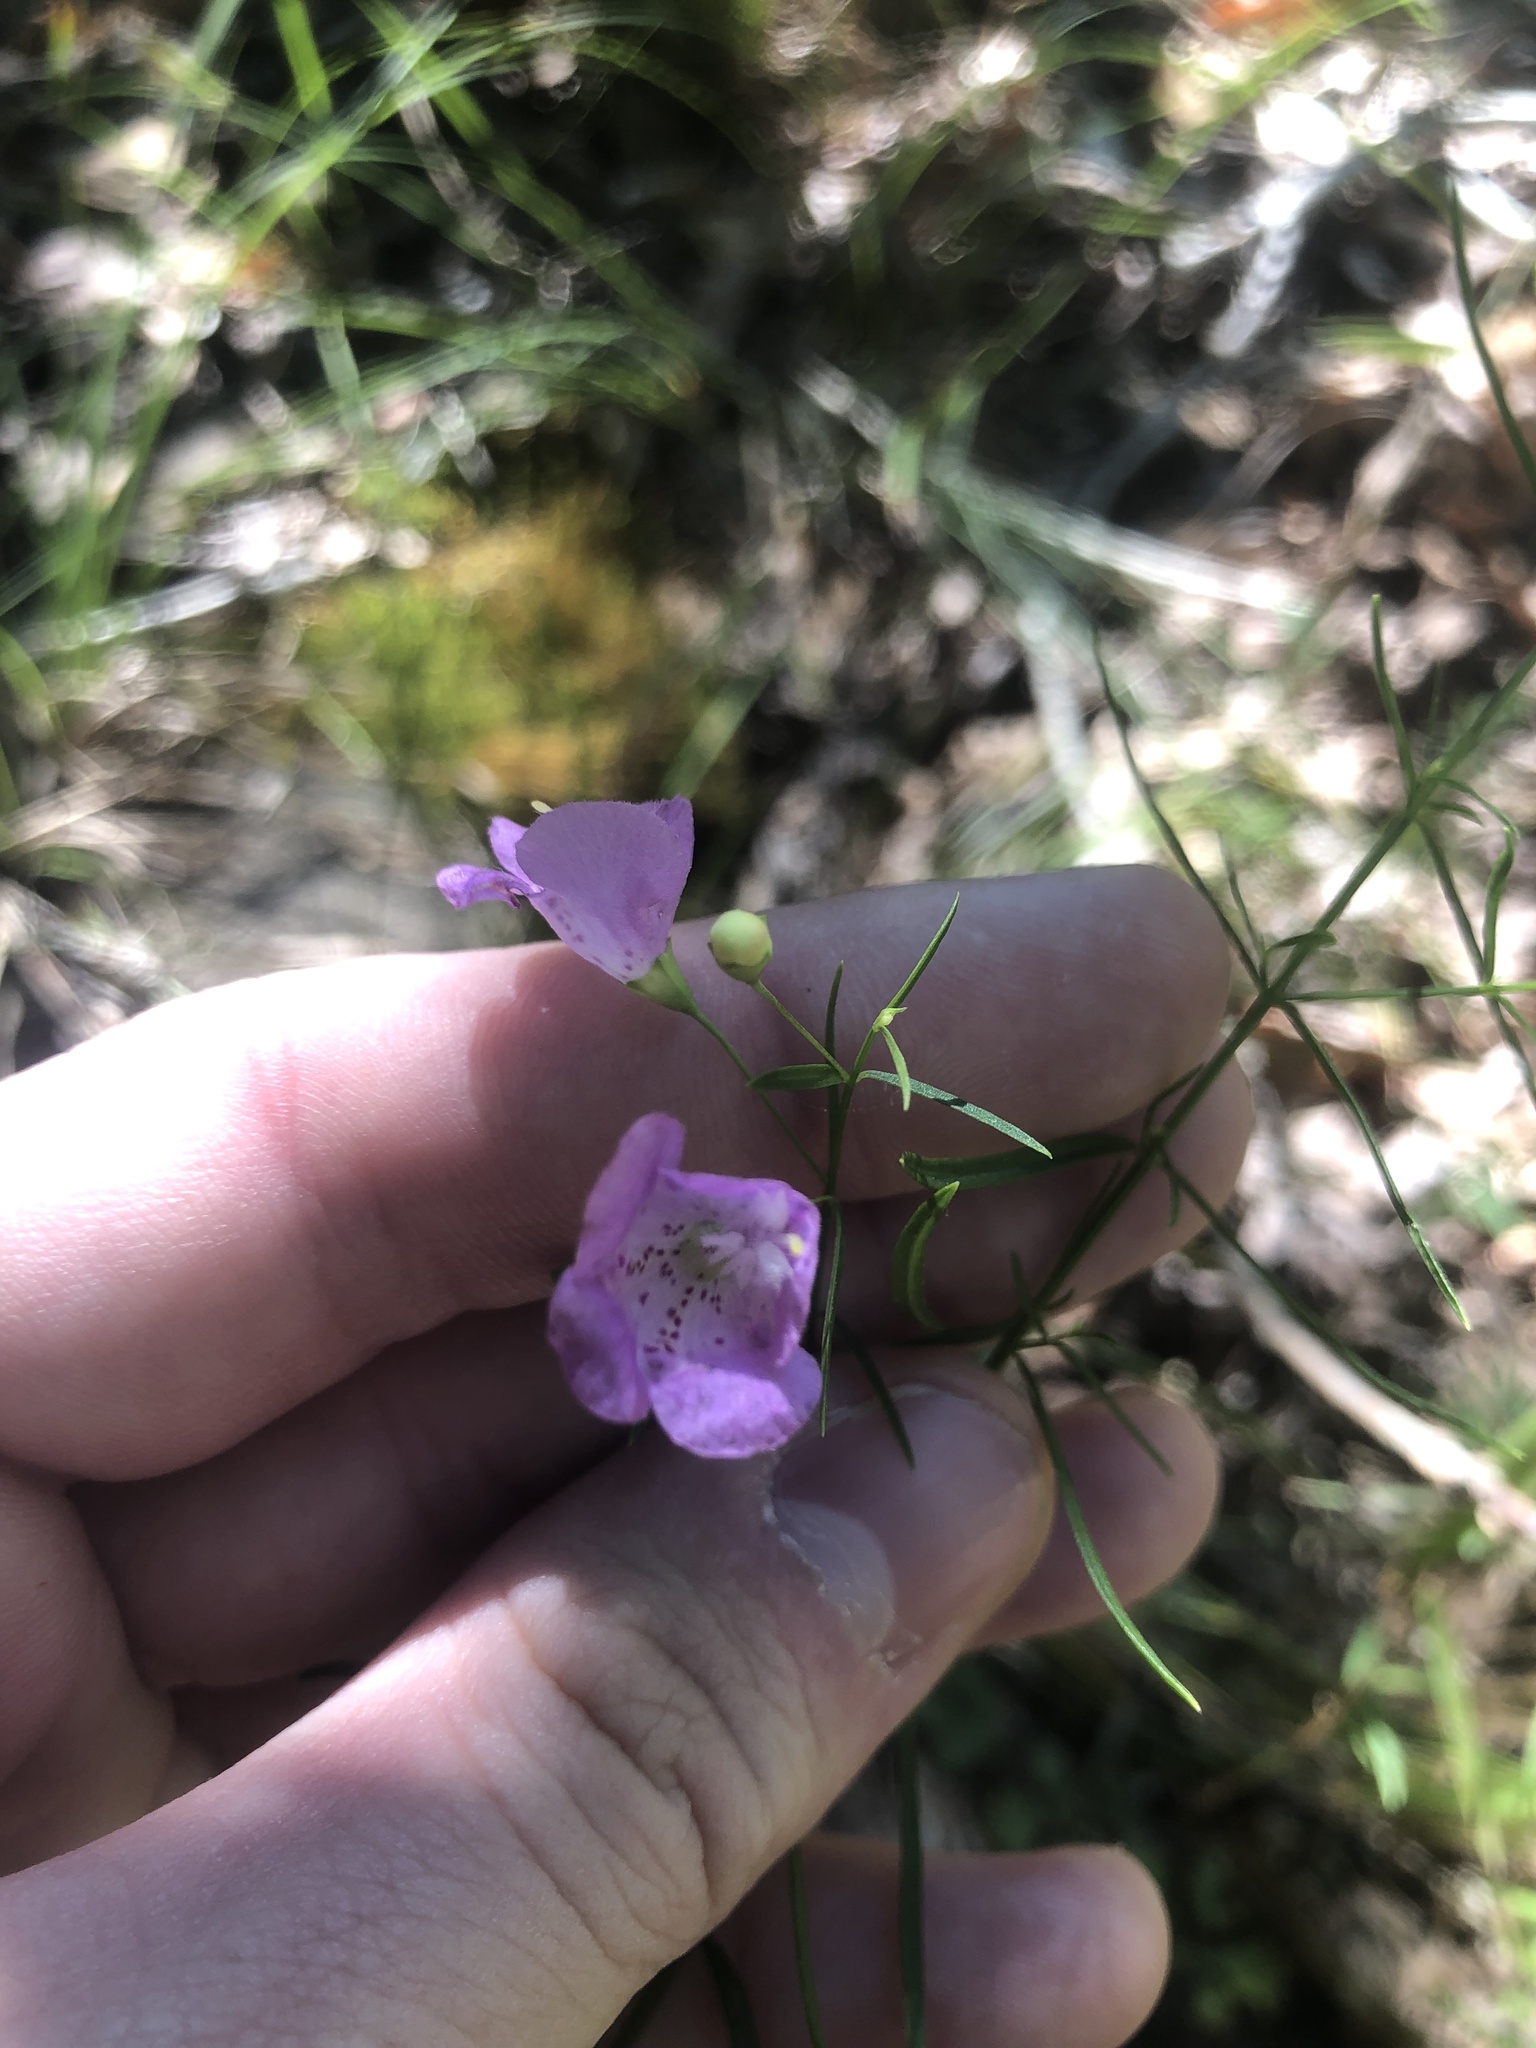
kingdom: Plantae
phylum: Tracheophyta
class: Magnoliopsida
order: Lamiales
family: Orobanchaceae
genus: Agalinis
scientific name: Agalinis tenuifolia
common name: Slender agalinis
